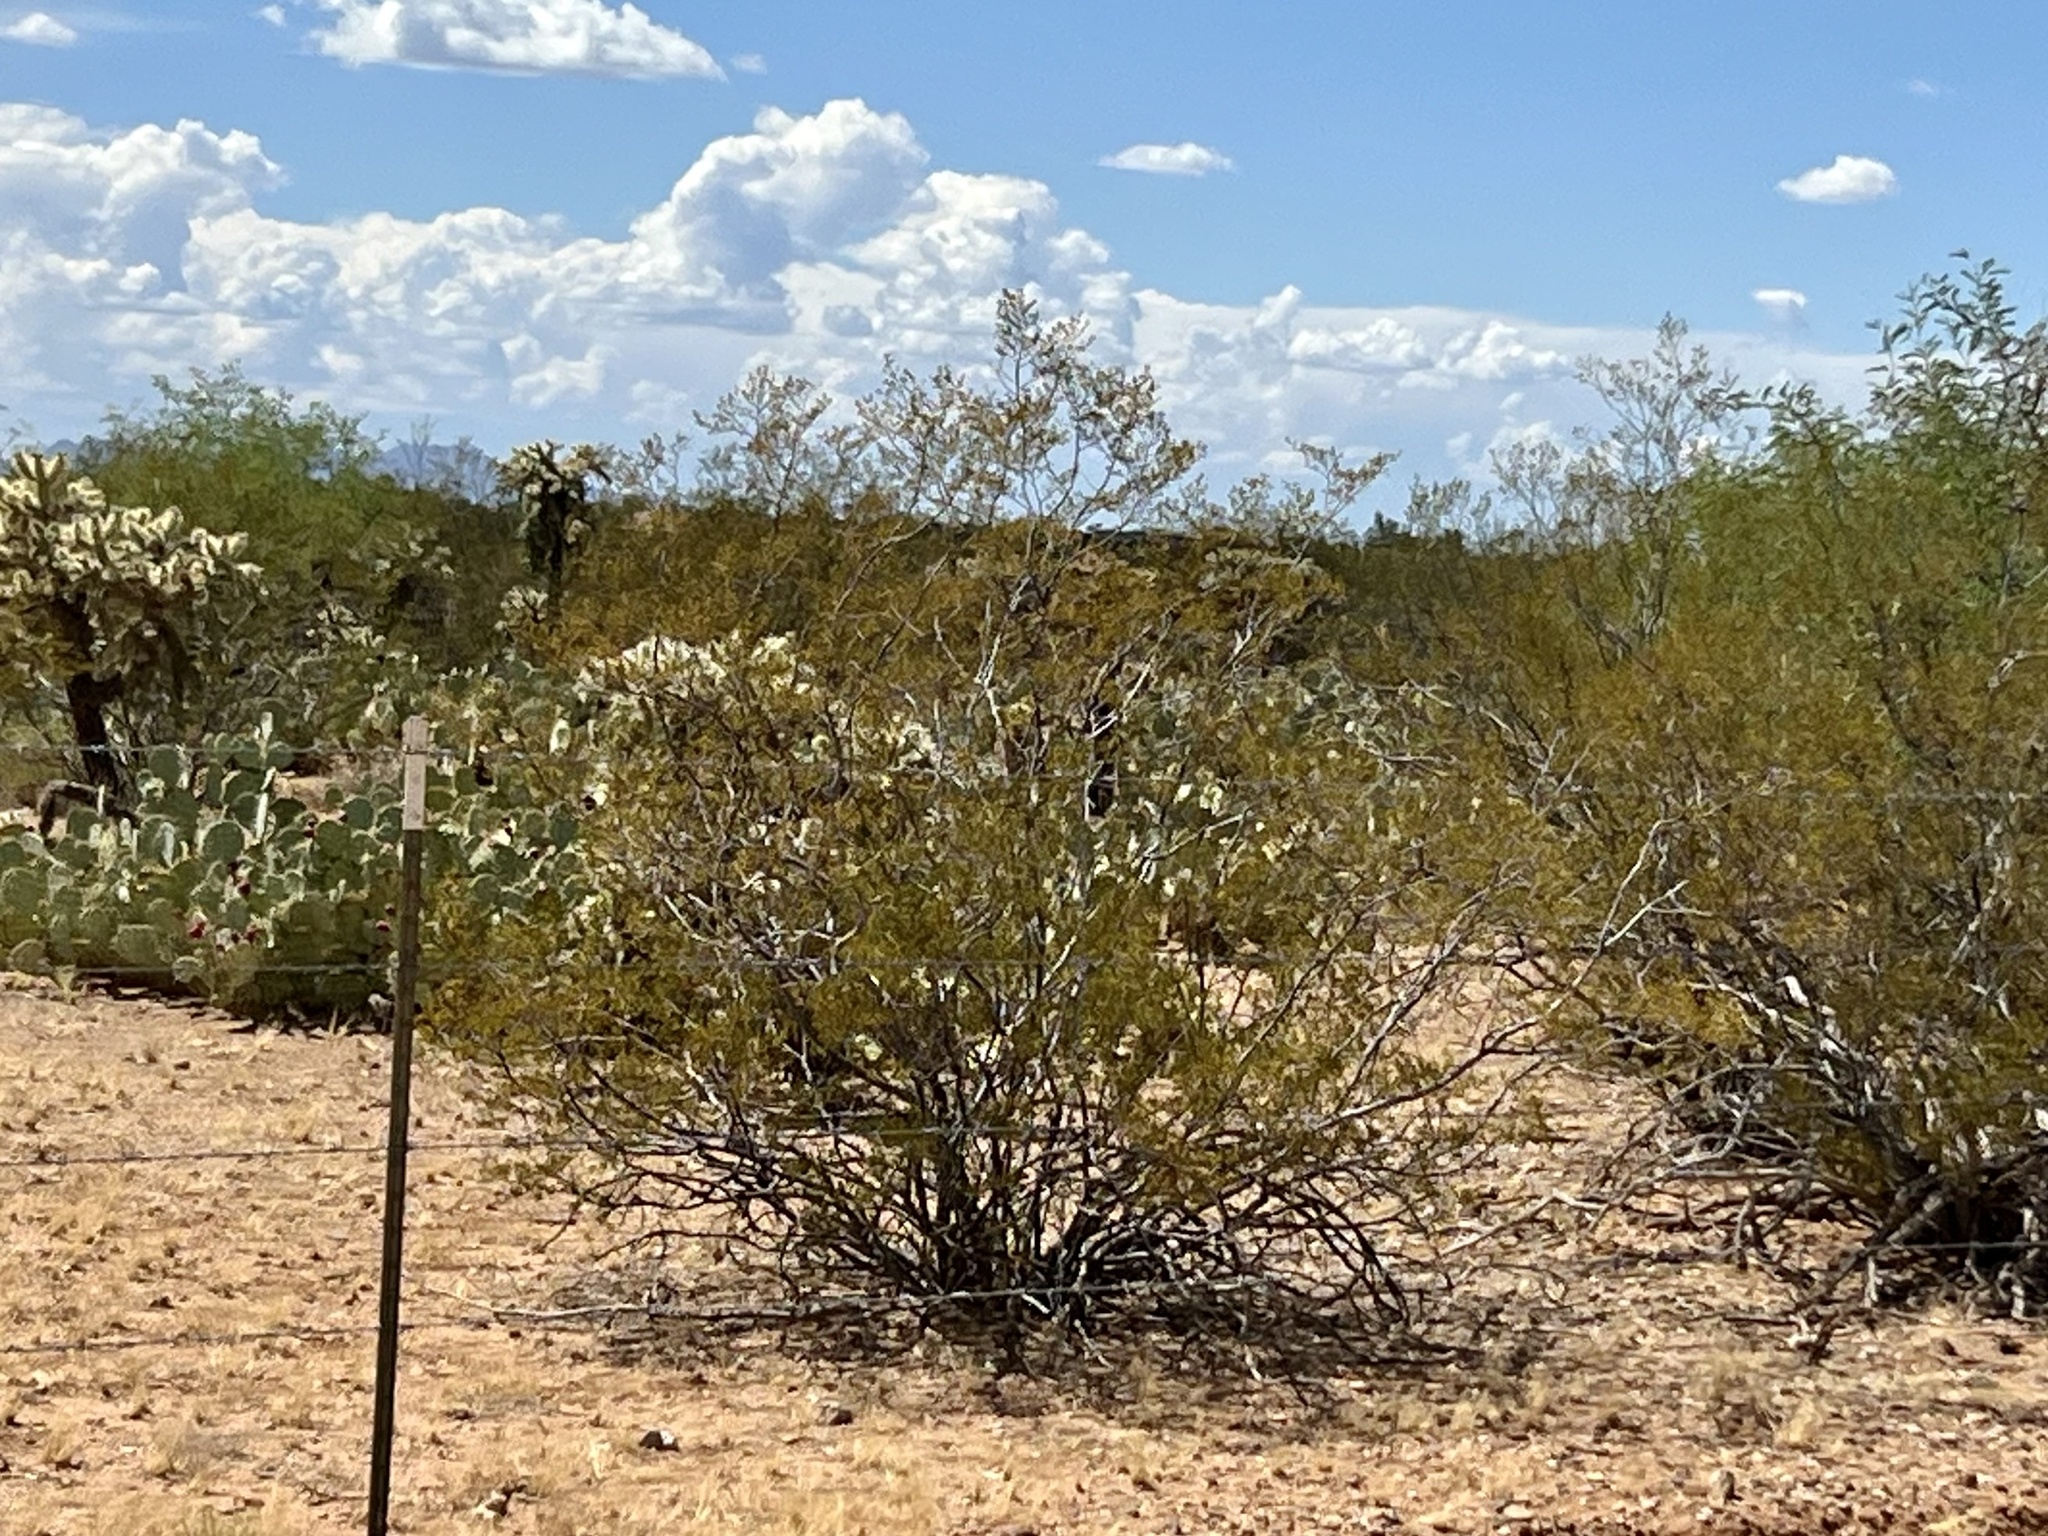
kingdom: Plantae
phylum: Tracheophyta
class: Magnoliopsida
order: Zygophyllales
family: Zygophyllaceae
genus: Larrea
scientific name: Larrea tridentata
